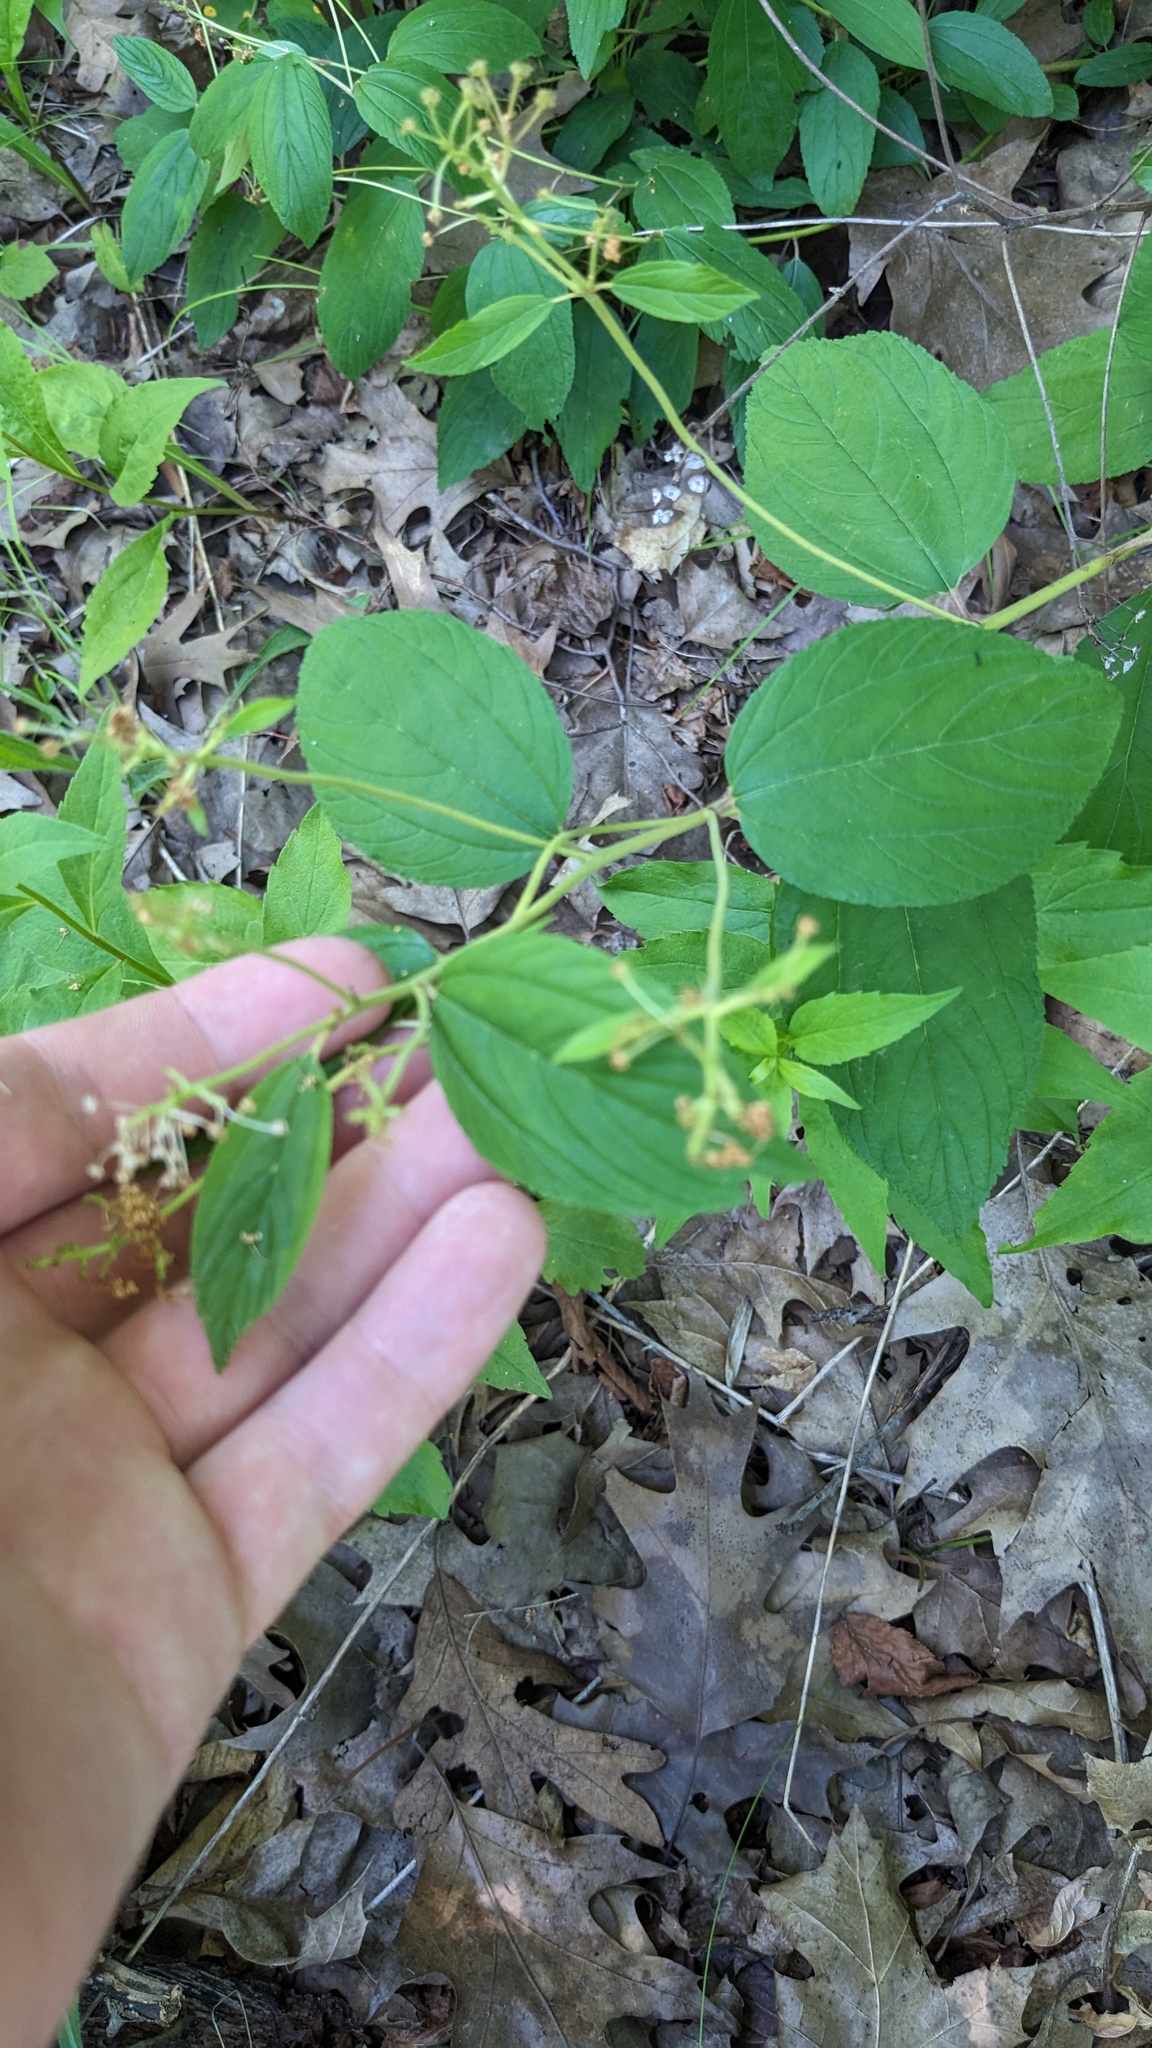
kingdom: Plantae
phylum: Tracheophyta
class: Magnoliopsida
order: Rosales
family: Rhamnaceae
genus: Ceanothus
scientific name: Ceanothus americanus
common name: Redroot
